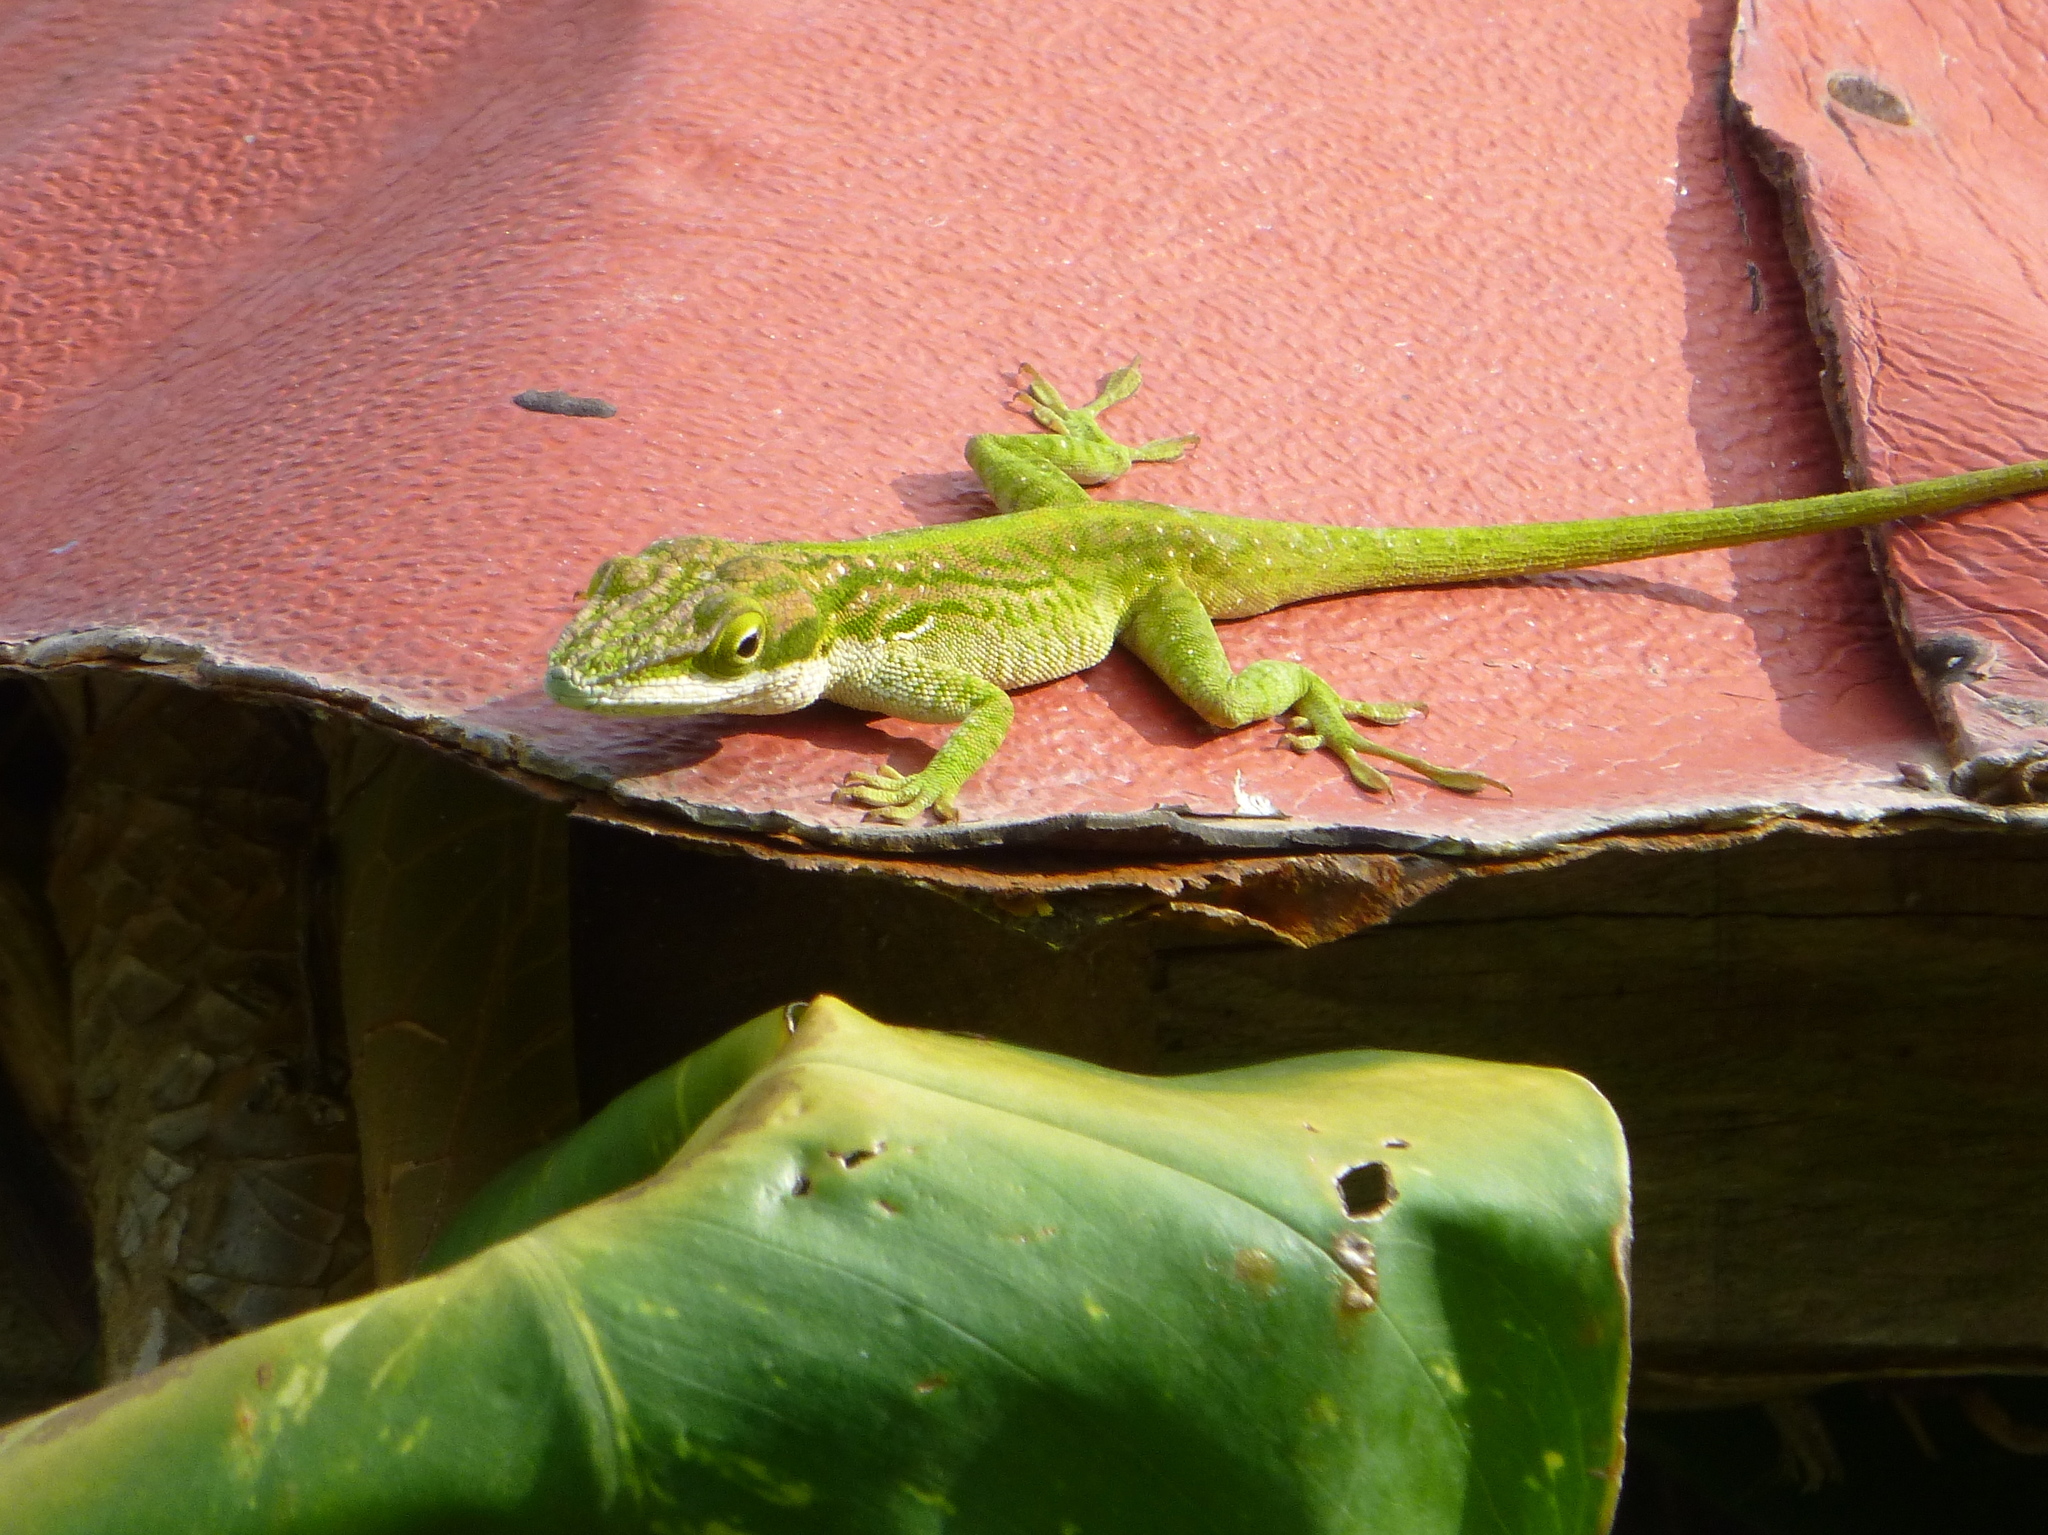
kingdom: Animalia
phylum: Chordata
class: Squamata
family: Dactyloidae
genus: Anolis
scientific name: Anolis porcatus
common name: Cuban green anole
